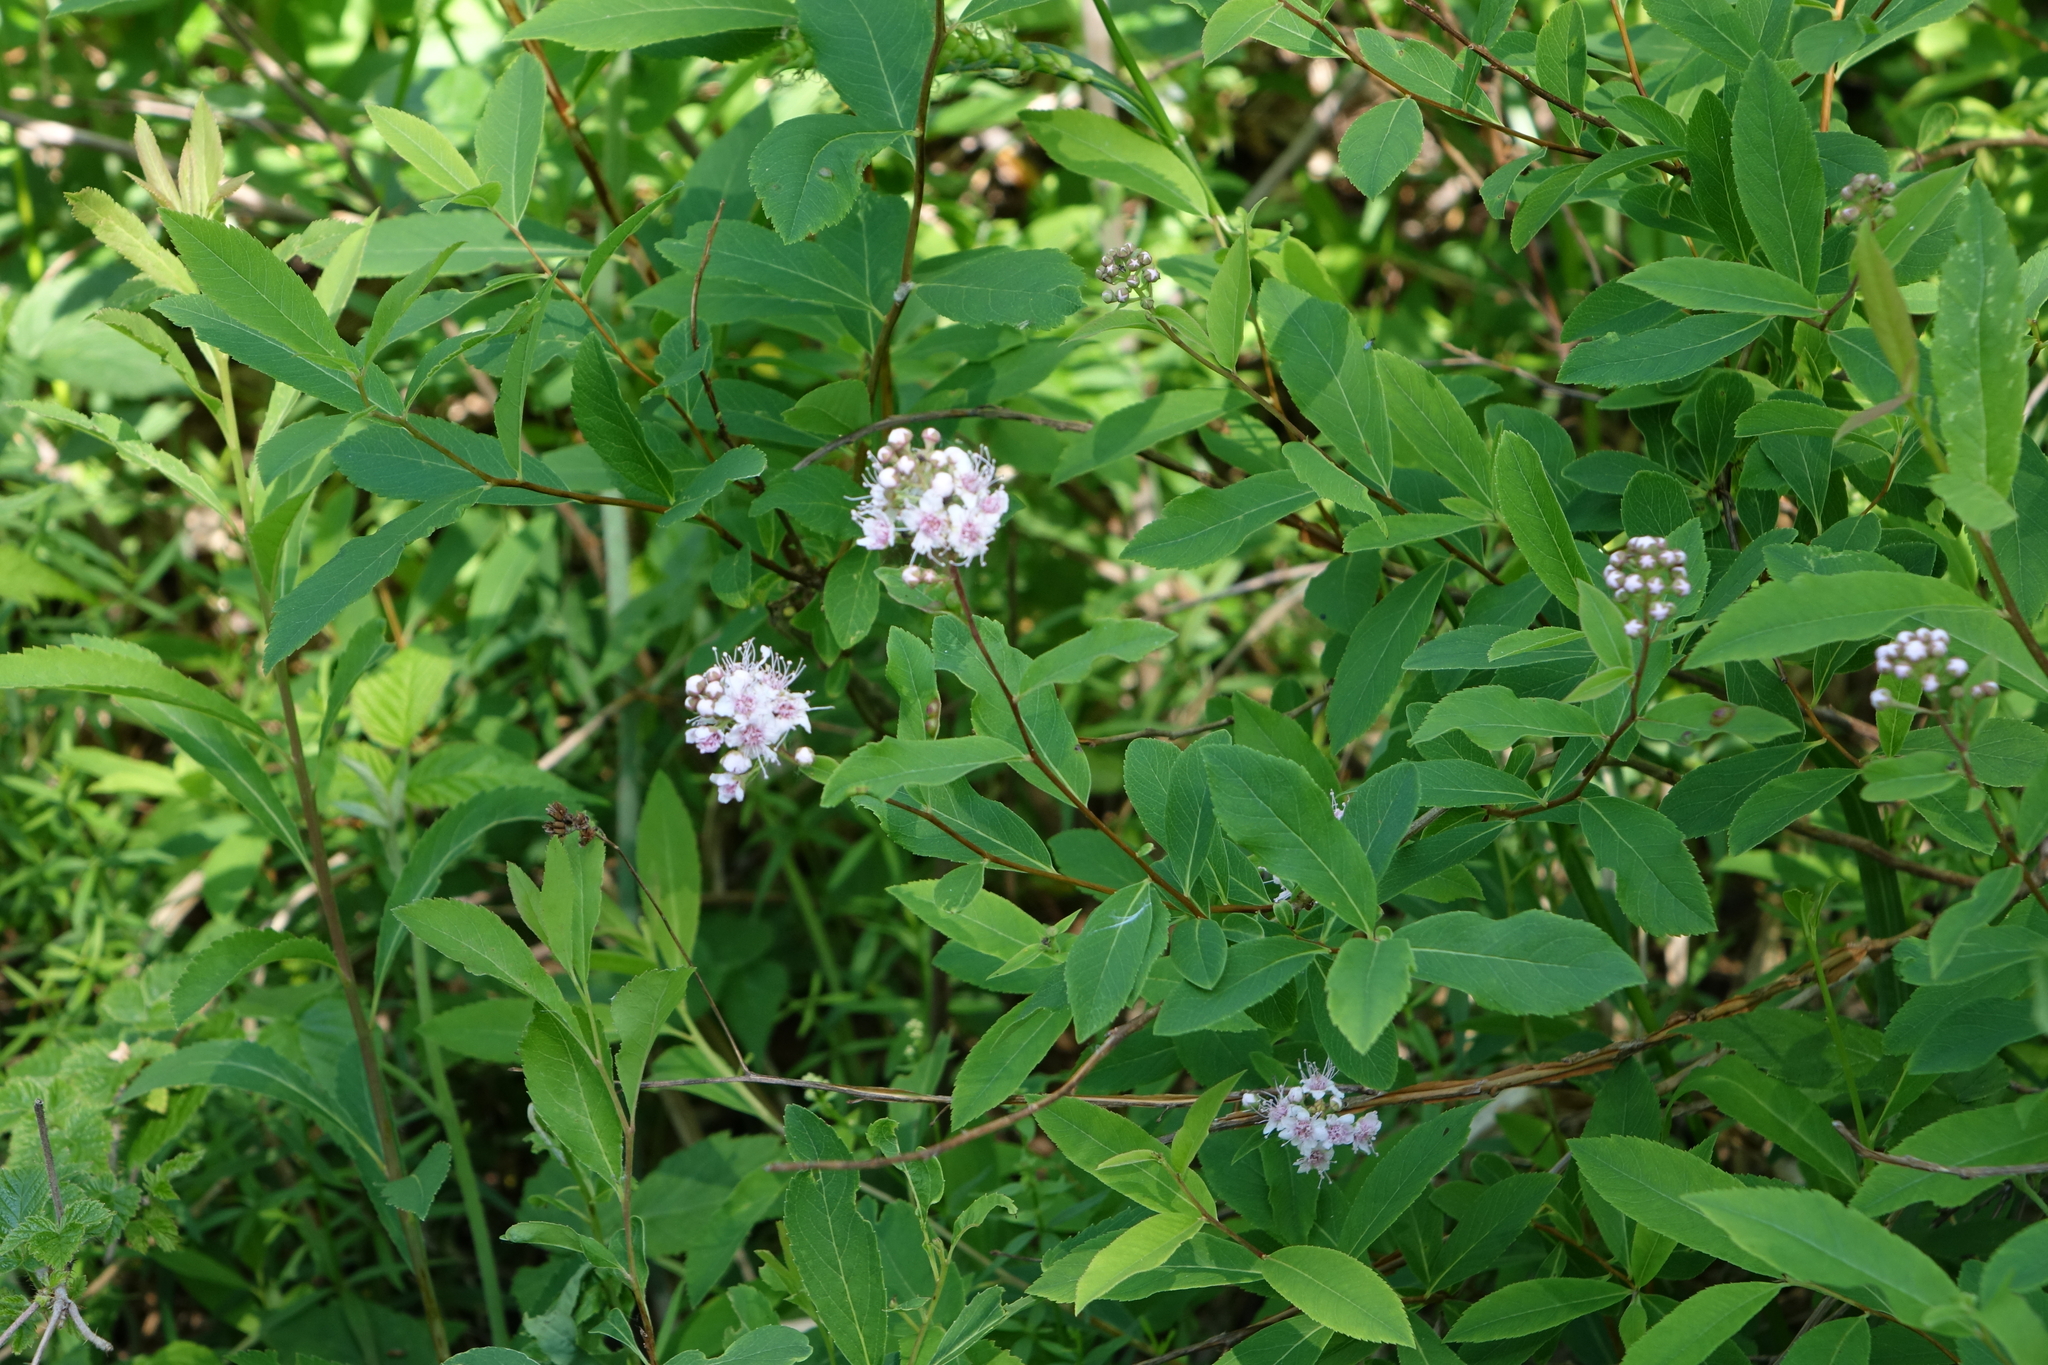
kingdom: Plantae
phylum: Tracheophyta
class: Magnoliopsida
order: Rosales
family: Rosaceae
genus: Spiraea
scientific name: Spiraea salicifolia
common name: Bridewort
